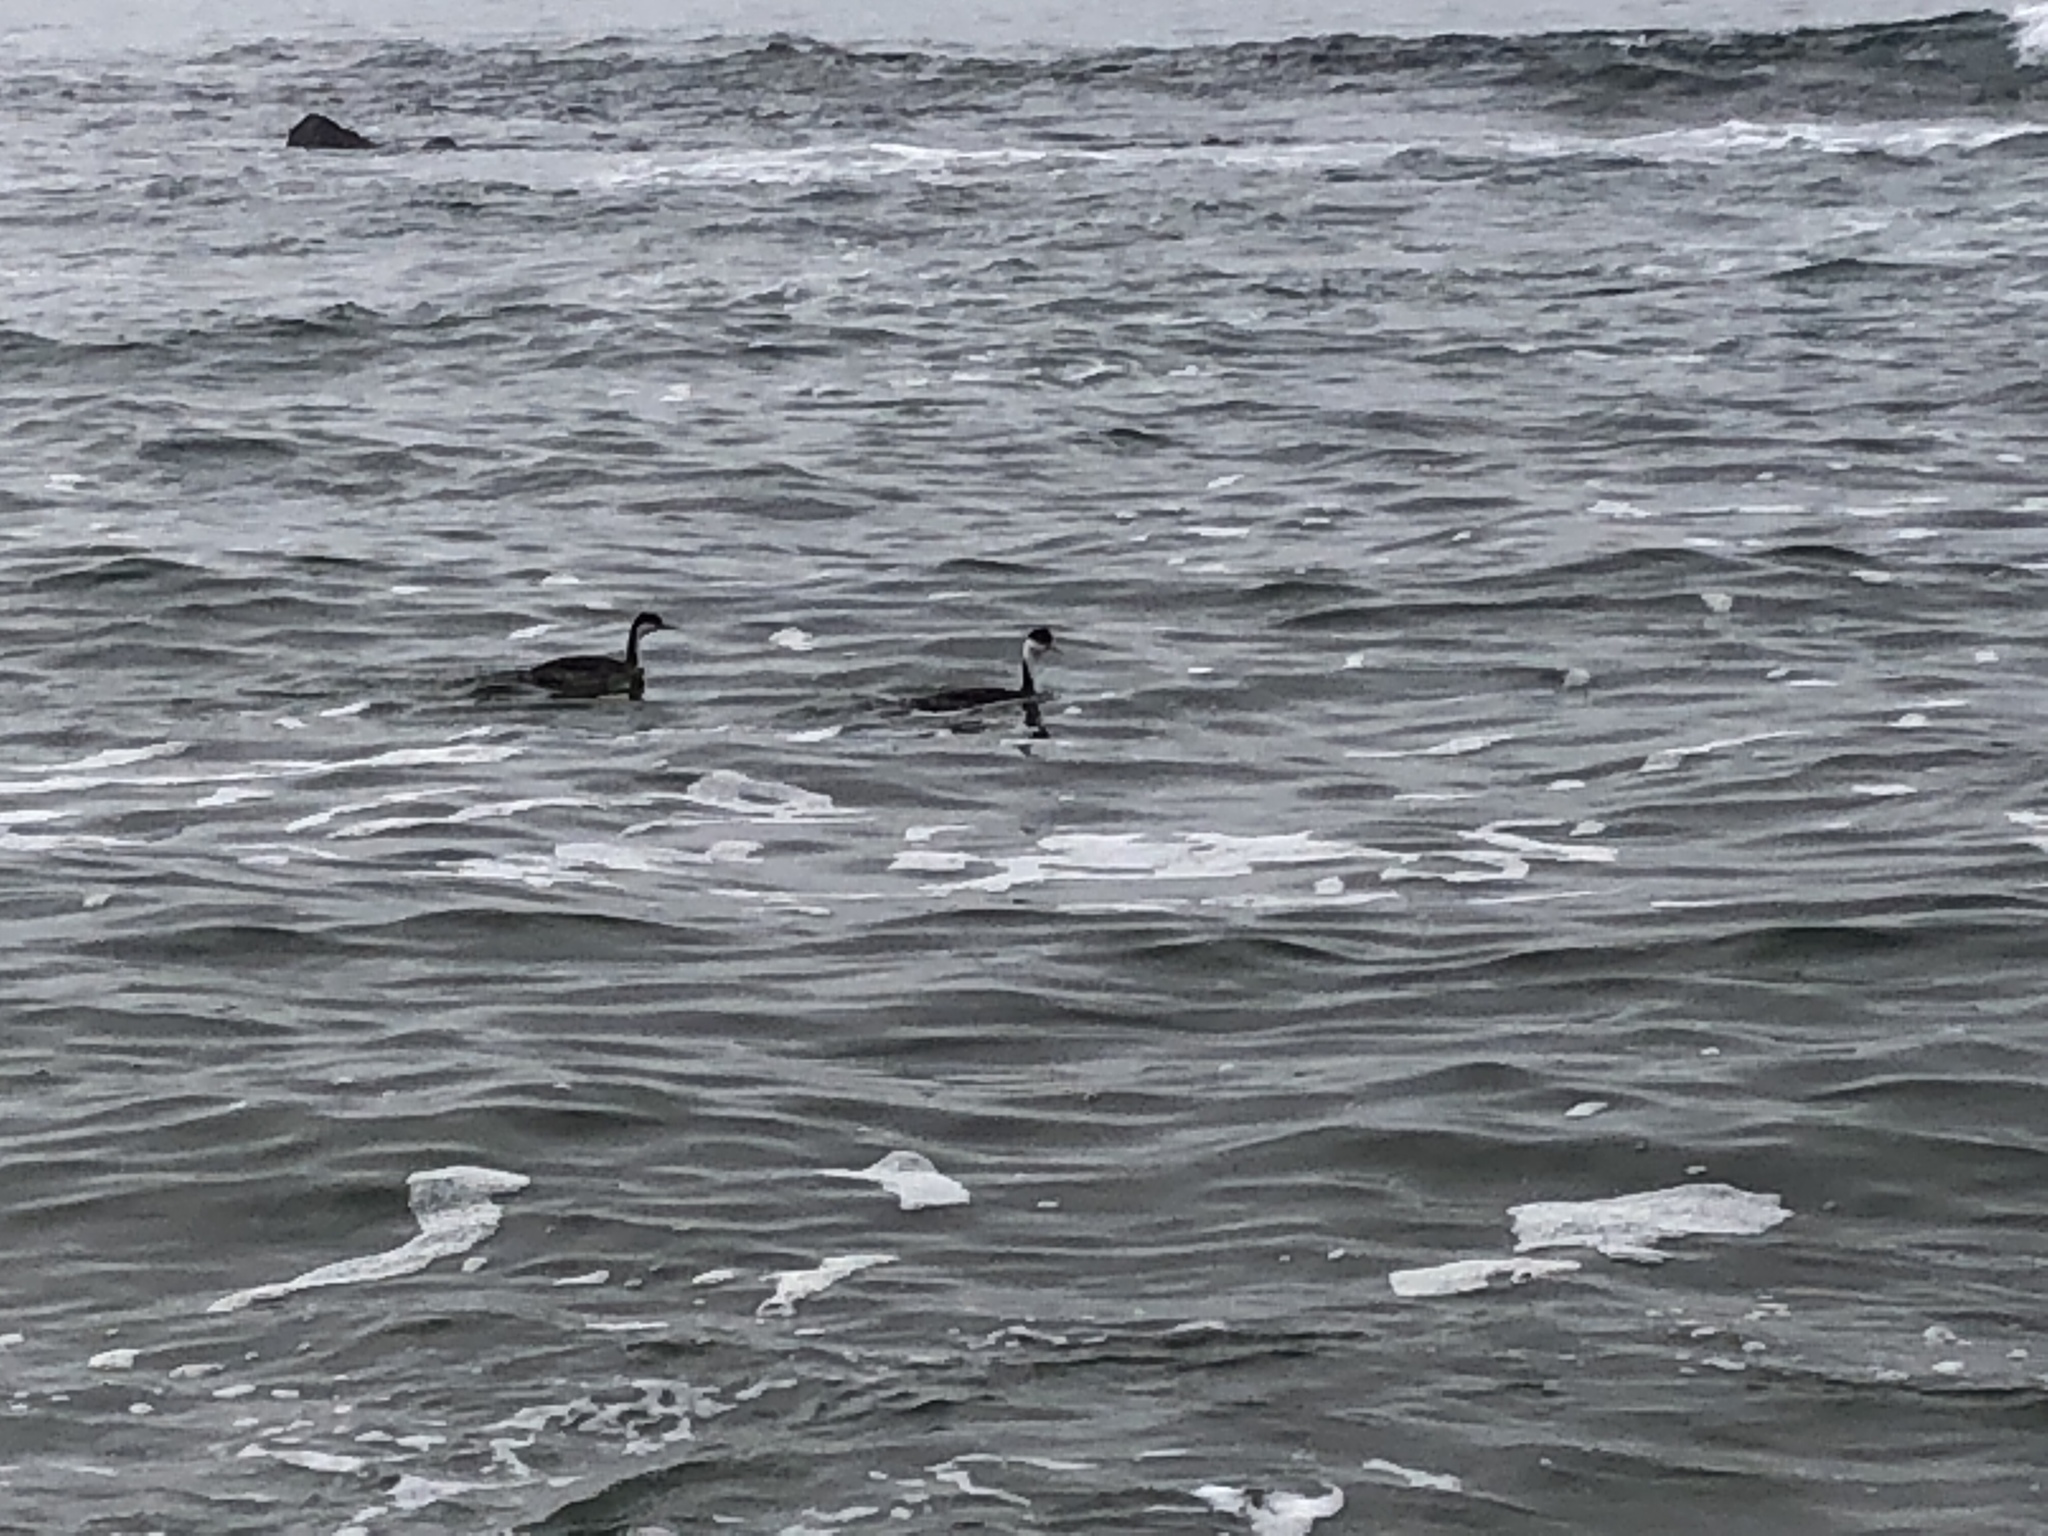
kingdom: Animalia
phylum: Chordata
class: Aves
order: Podicipediformes
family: Podicipedidae
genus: Aechmophorus
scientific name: Aechmophorus occidentalis
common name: Western grebe
